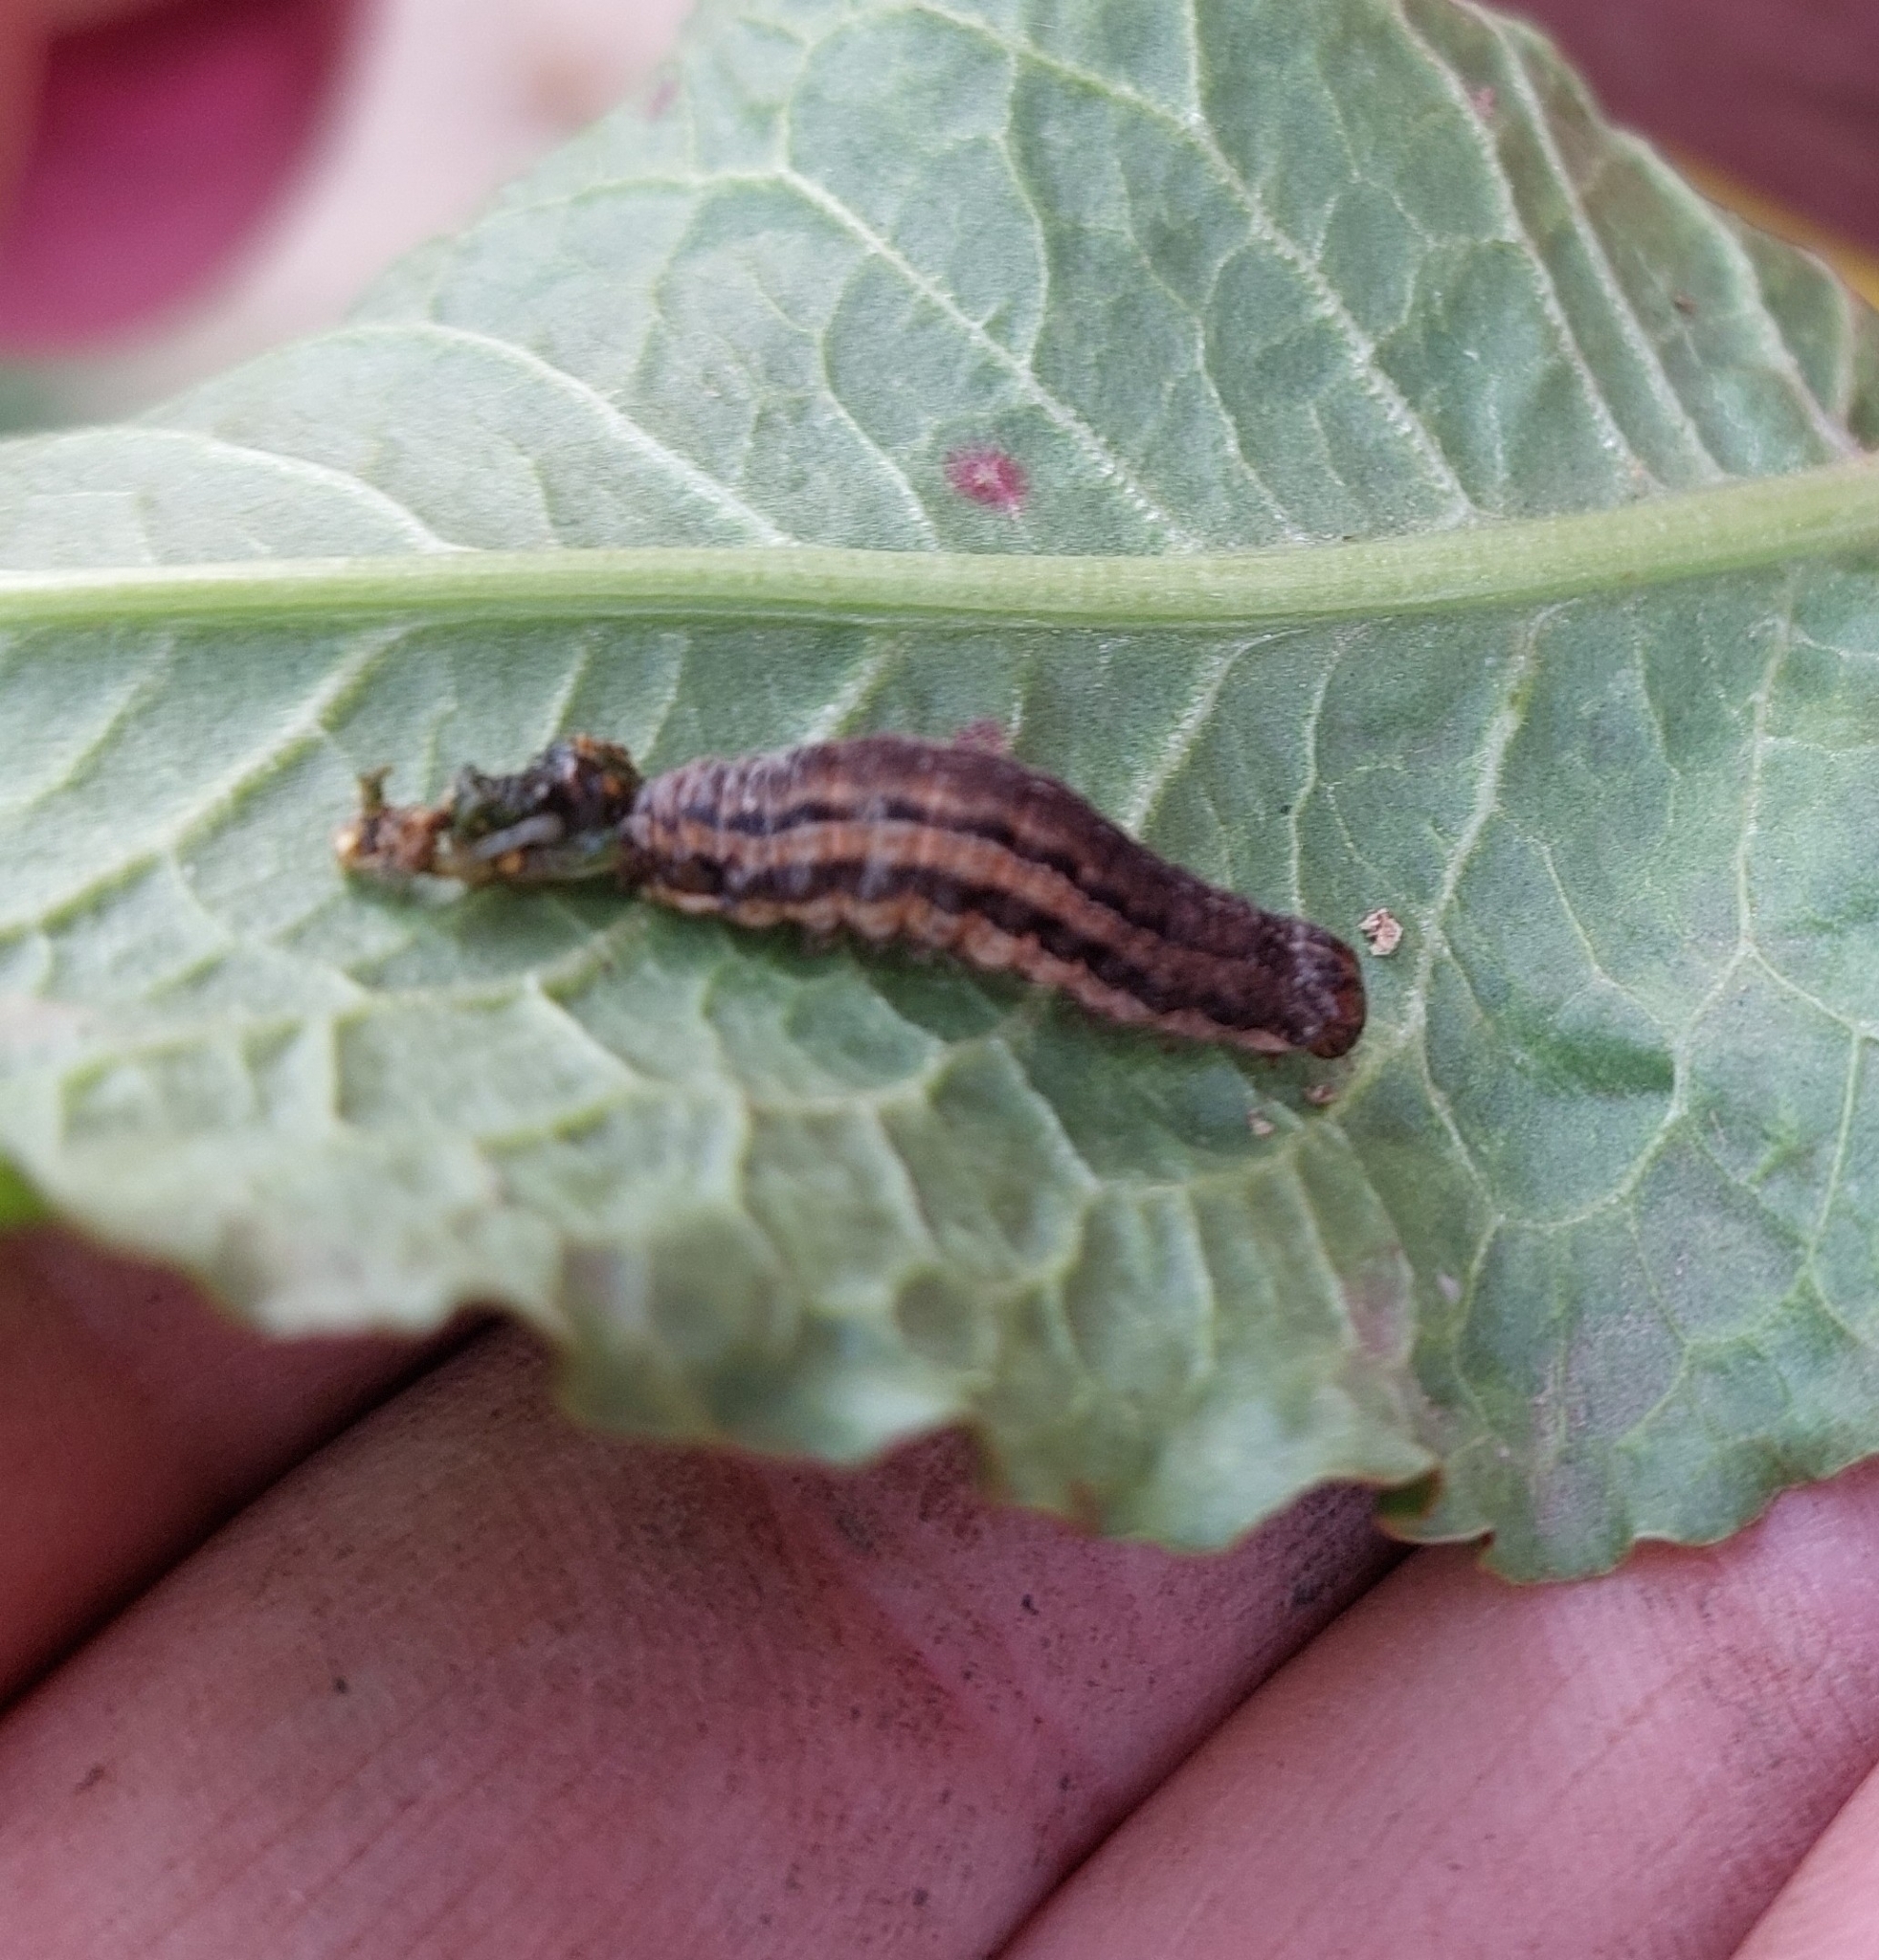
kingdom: Animalia
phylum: Arthropoda
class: Insecta
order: Lepidoptera
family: Noctuidae
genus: Xestia
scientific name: Xestia xanthographa
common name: Square-spot rustic
